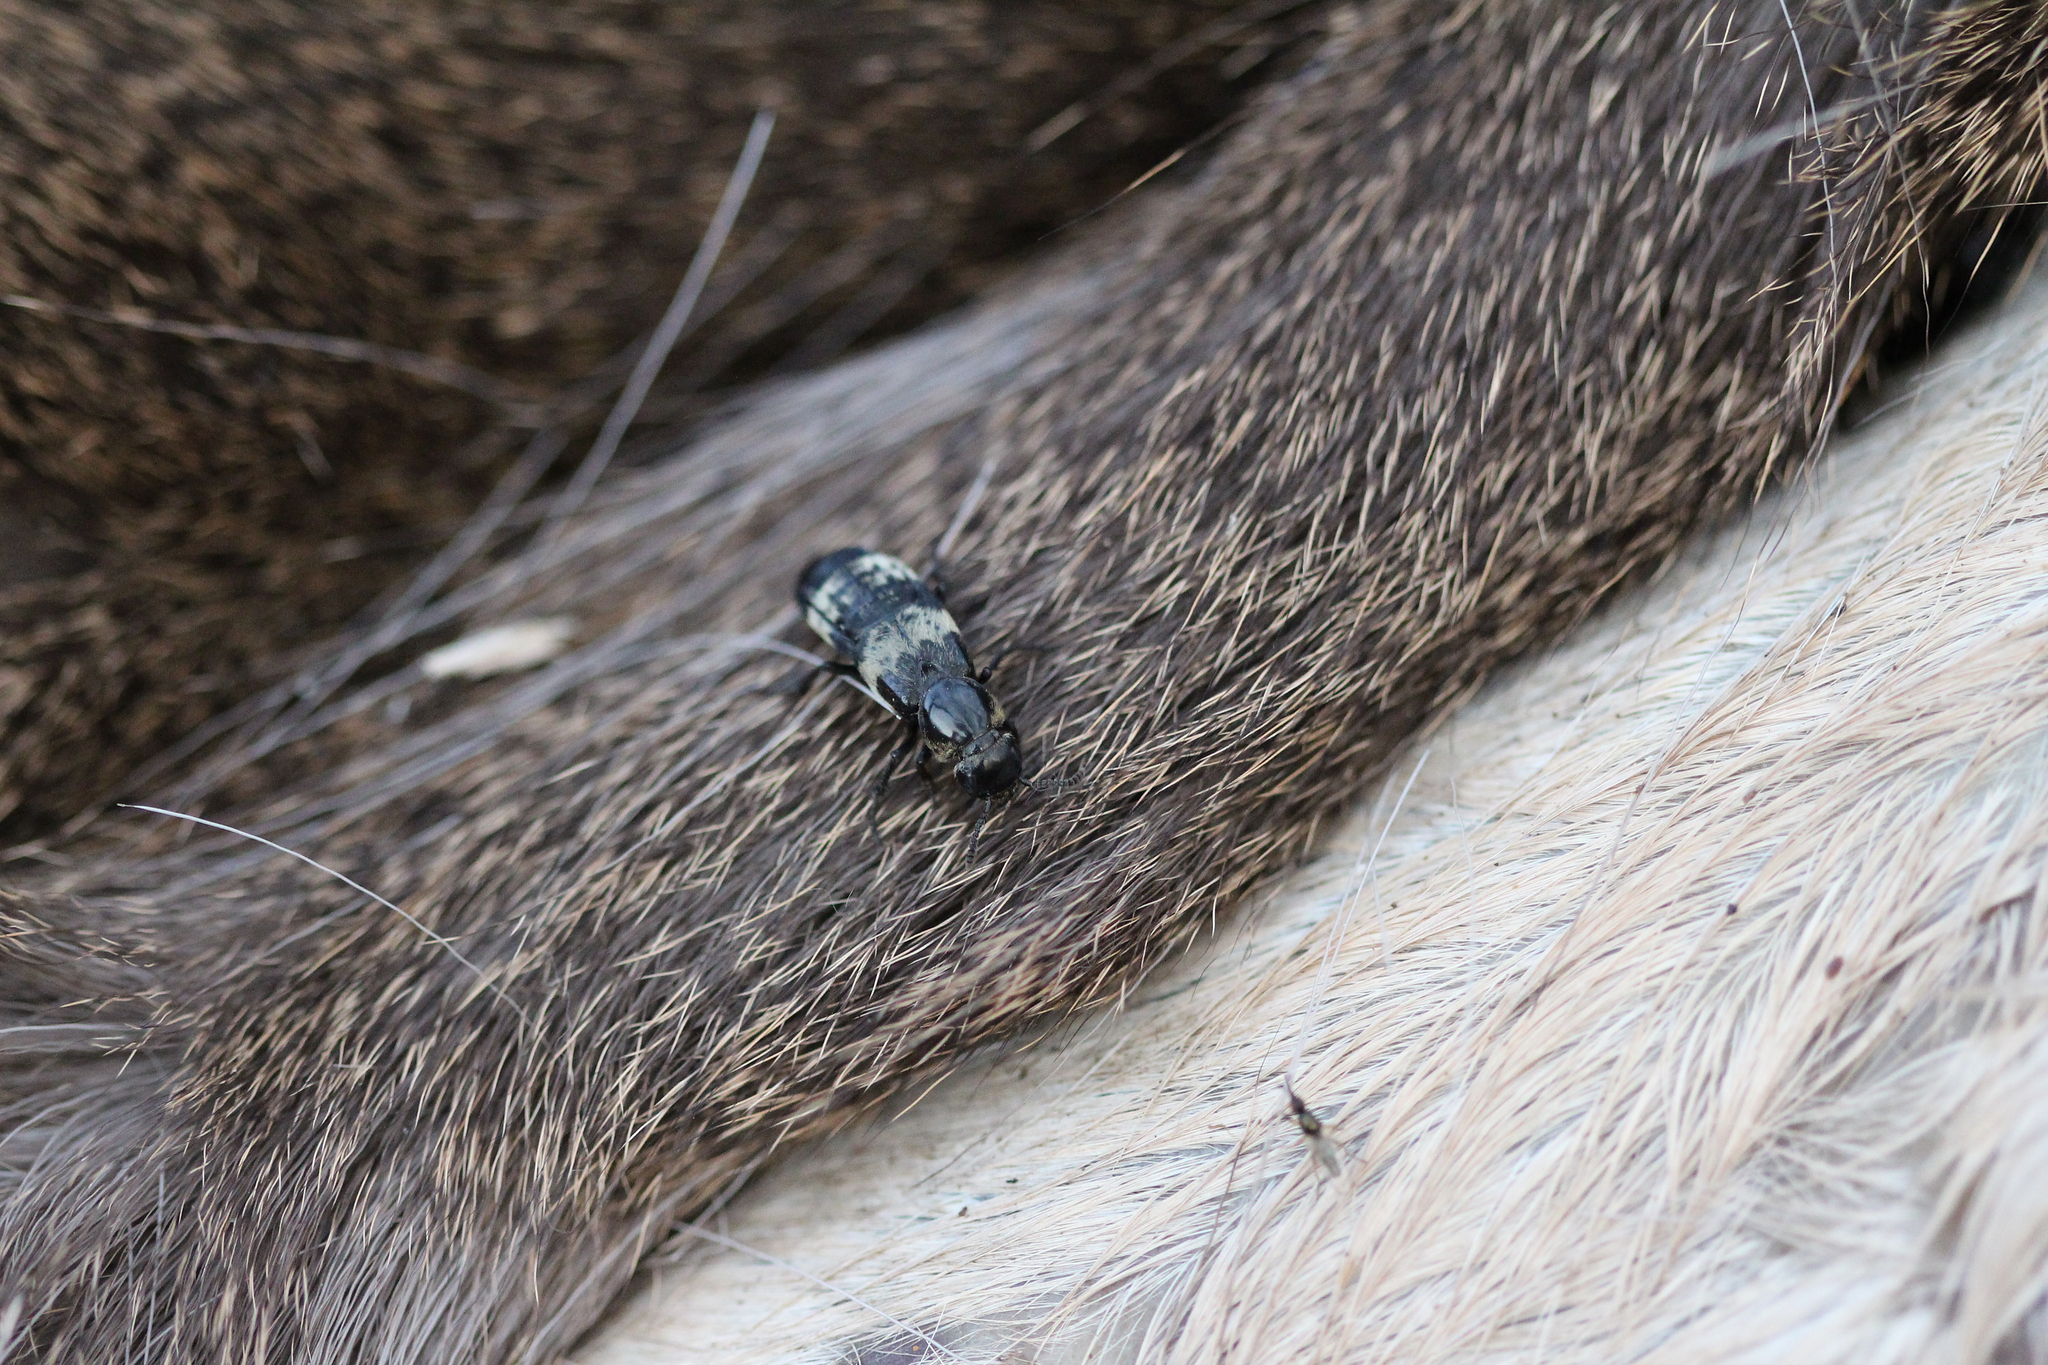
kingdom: Animalia
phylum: Arthropoda
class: Insecta
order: Coleoptera
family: Staphylinidae
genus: Creophilus
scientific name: Creophilus maxillosus
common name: Hairy rove beetle
